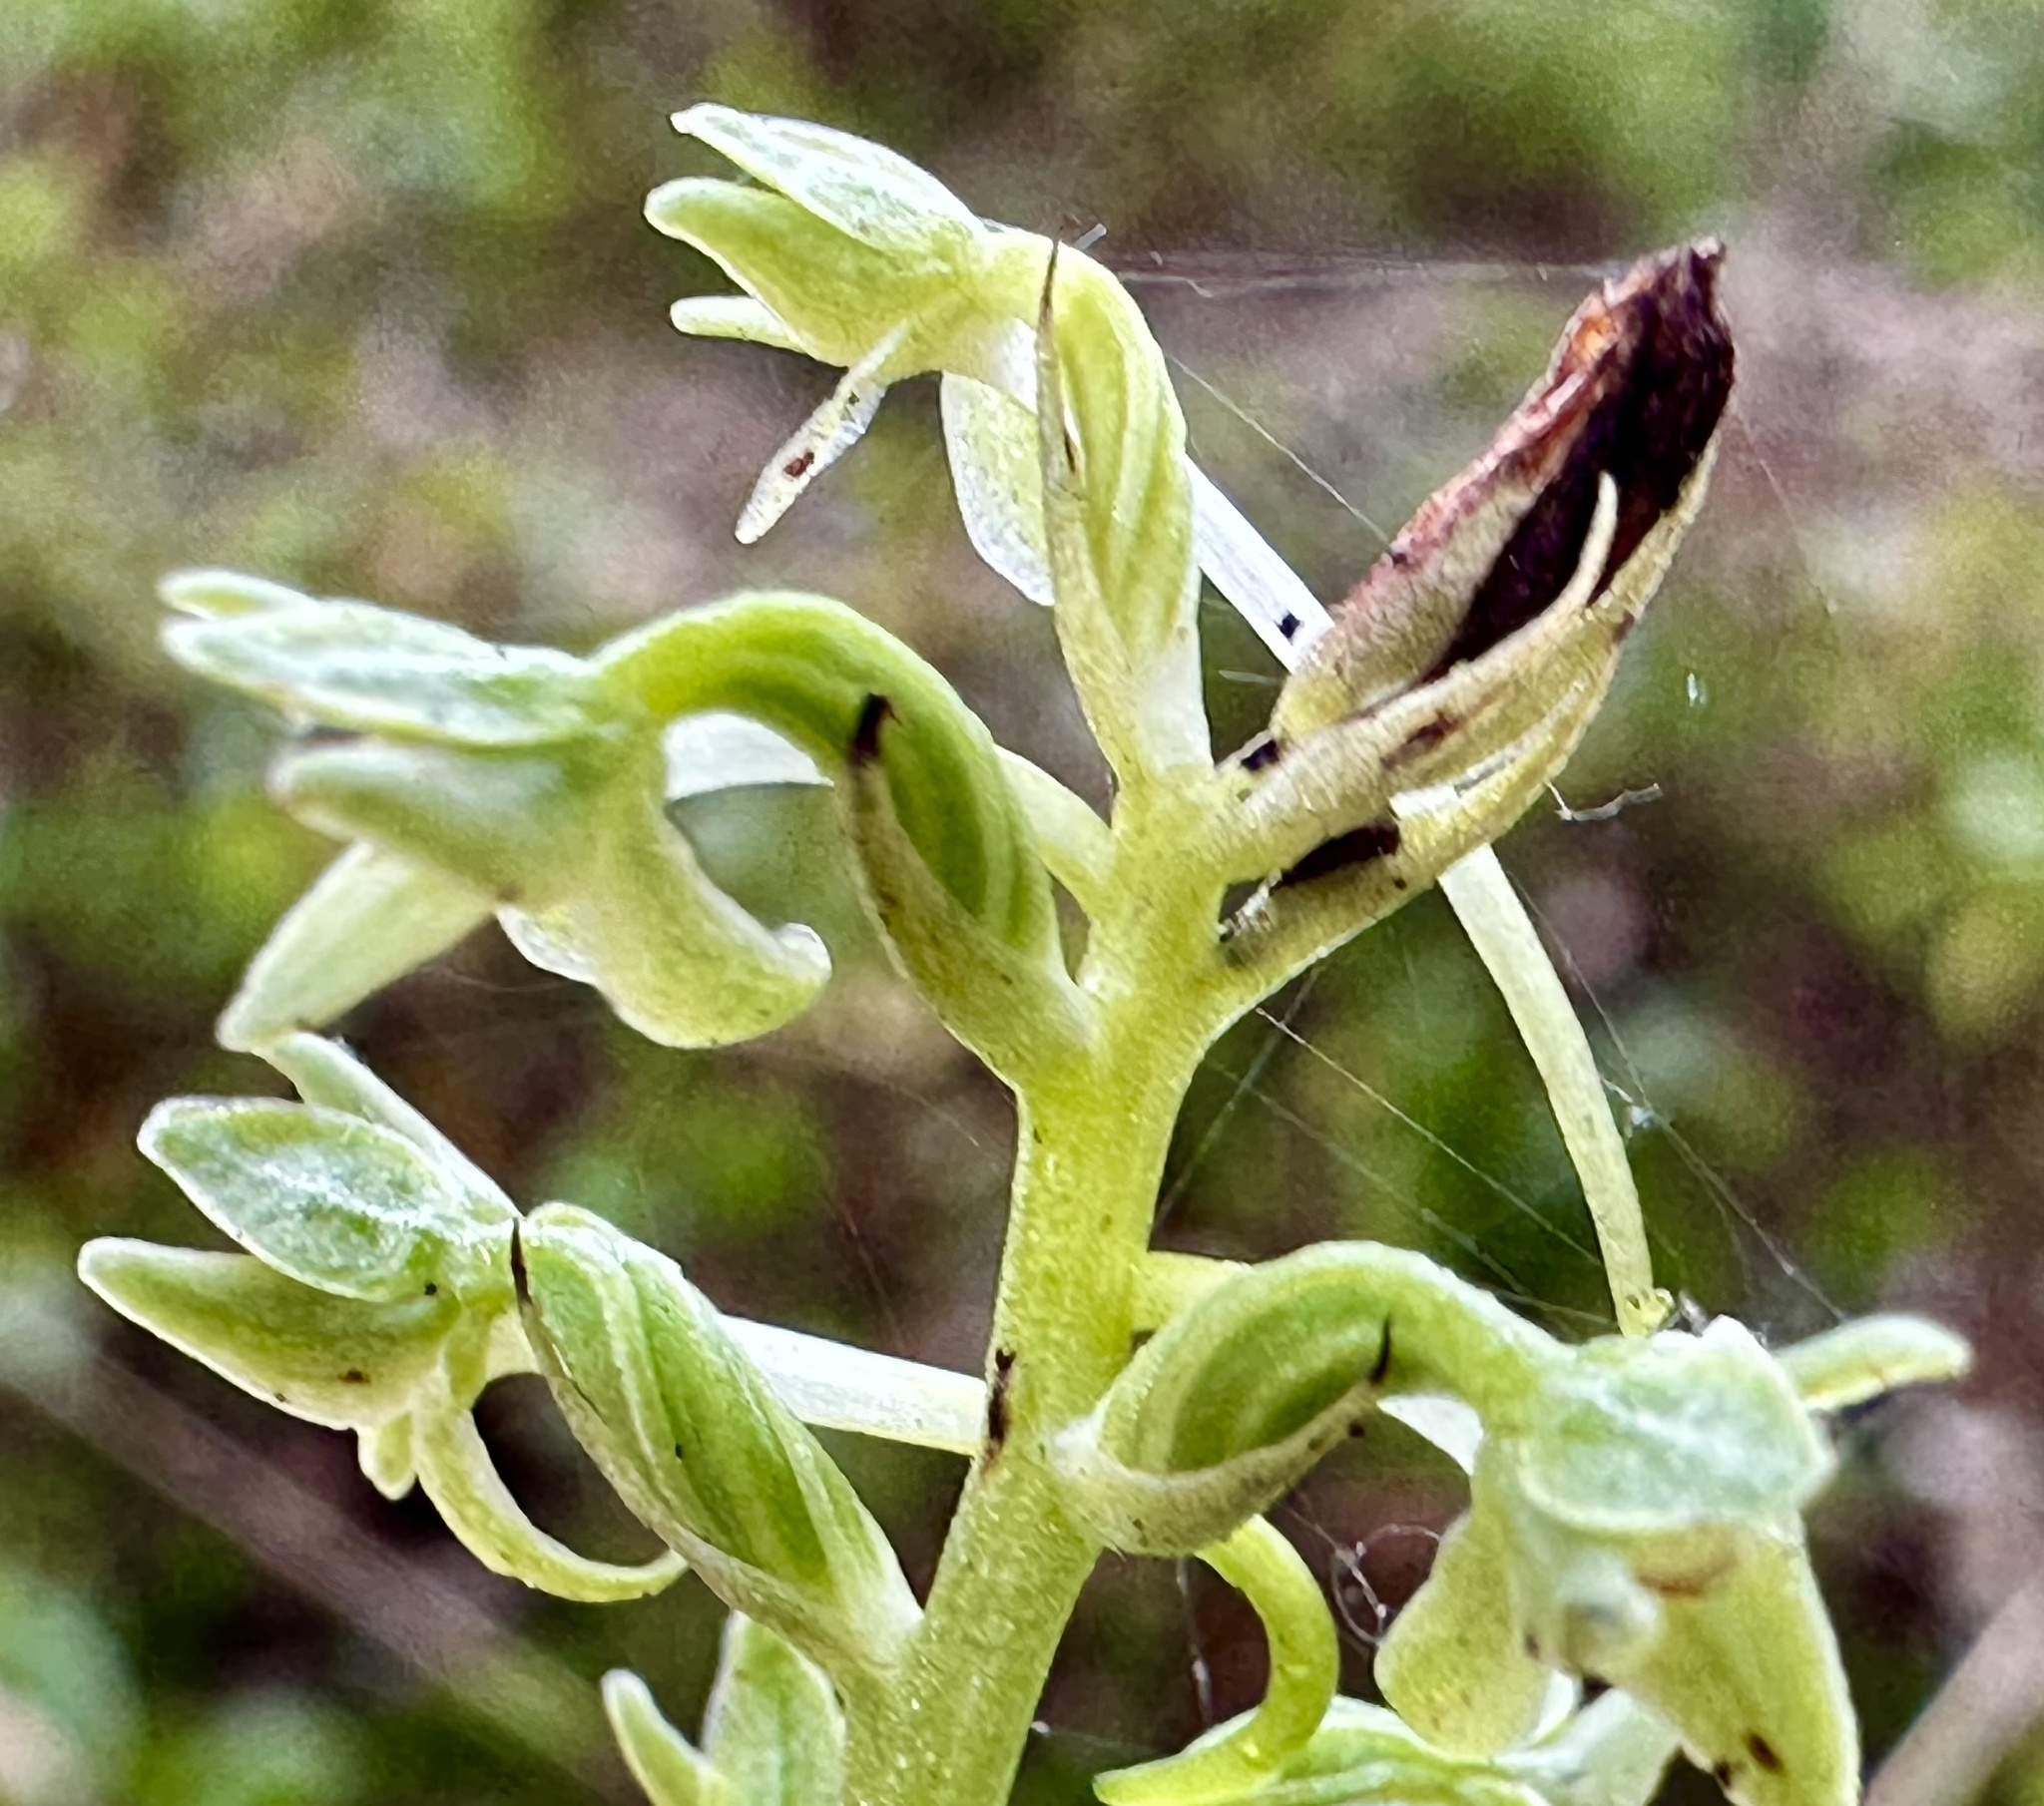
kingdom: Plantae
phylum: Tracheophyta
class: Liliopsida
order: Asparagales
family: Orchidaceae
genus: Platanthera
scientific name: Platanthera elongata
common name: Dense-flowered rein orchid
